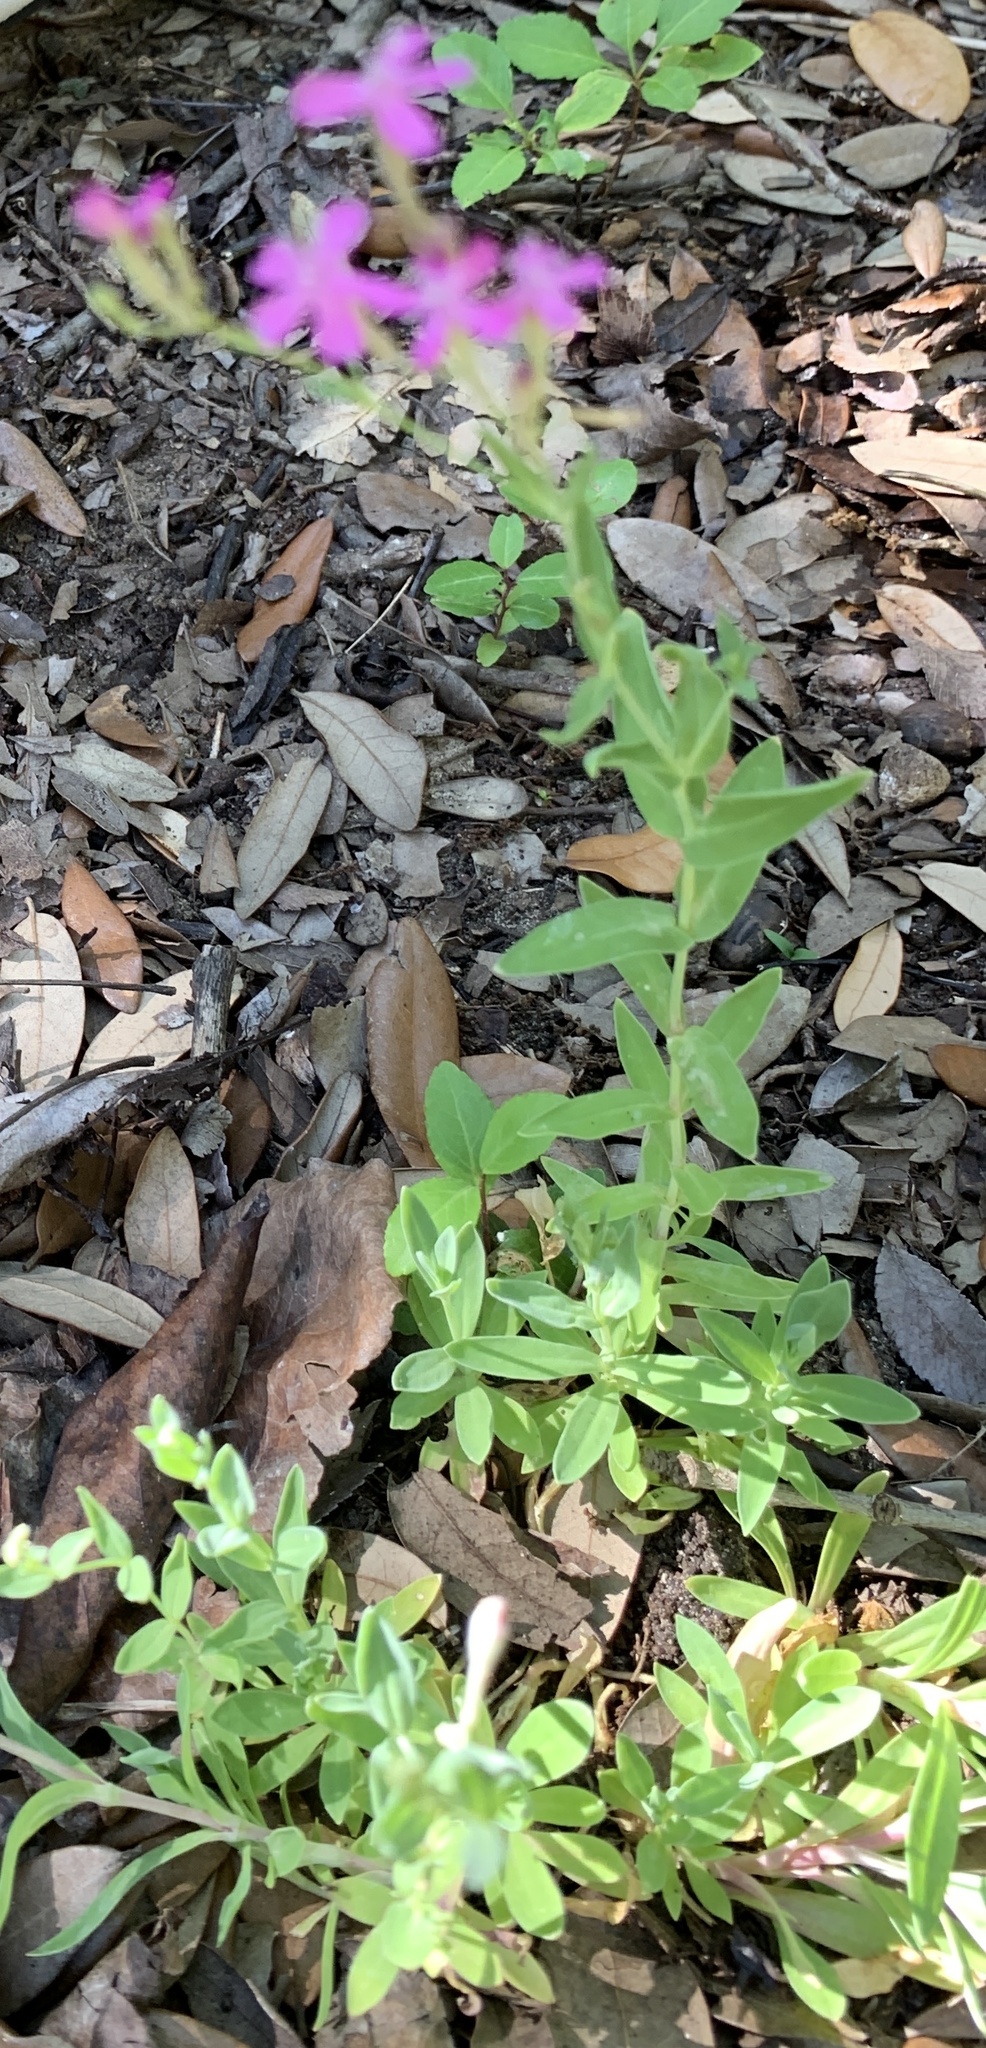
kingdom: Plantae
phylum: Tracheophyta
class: Magnoliopsida
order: Caryophyllales
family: Caryophyllaceae
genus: Atocion
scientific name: Atocion armeria
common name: Sweet william catchfly
